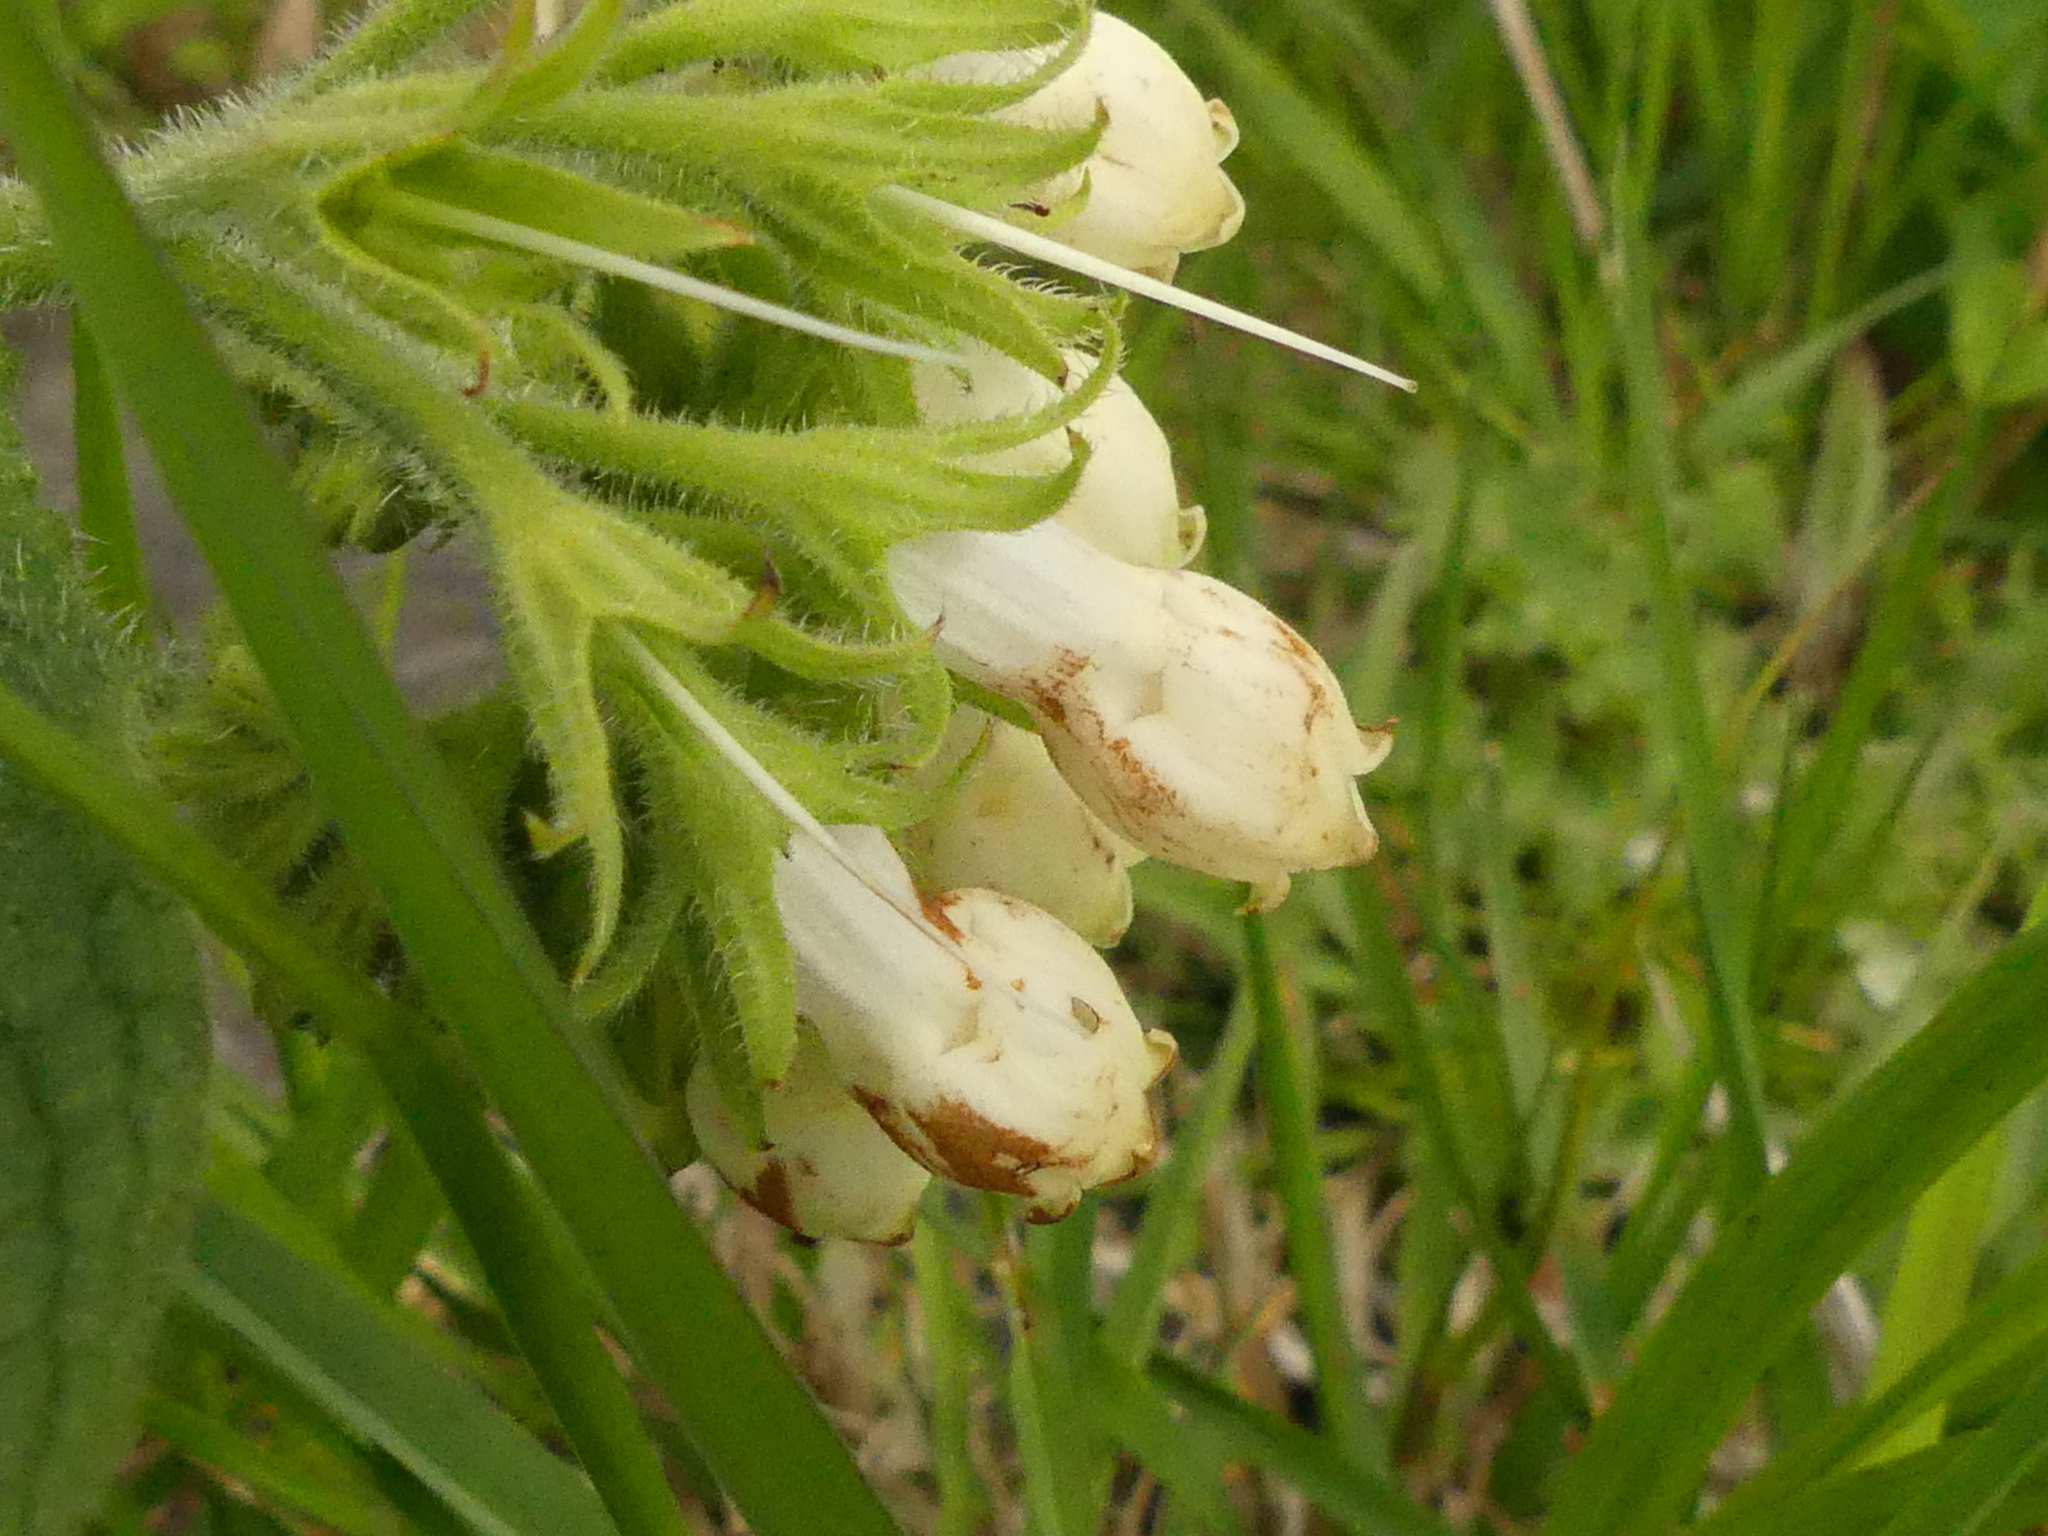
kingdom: Plantae
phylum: Tracheophyta
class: Magnoliopsida
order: Boraginales
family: Boraginaceae
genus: Symphytum
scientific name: Symphytum officinale
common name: Common comfrey
